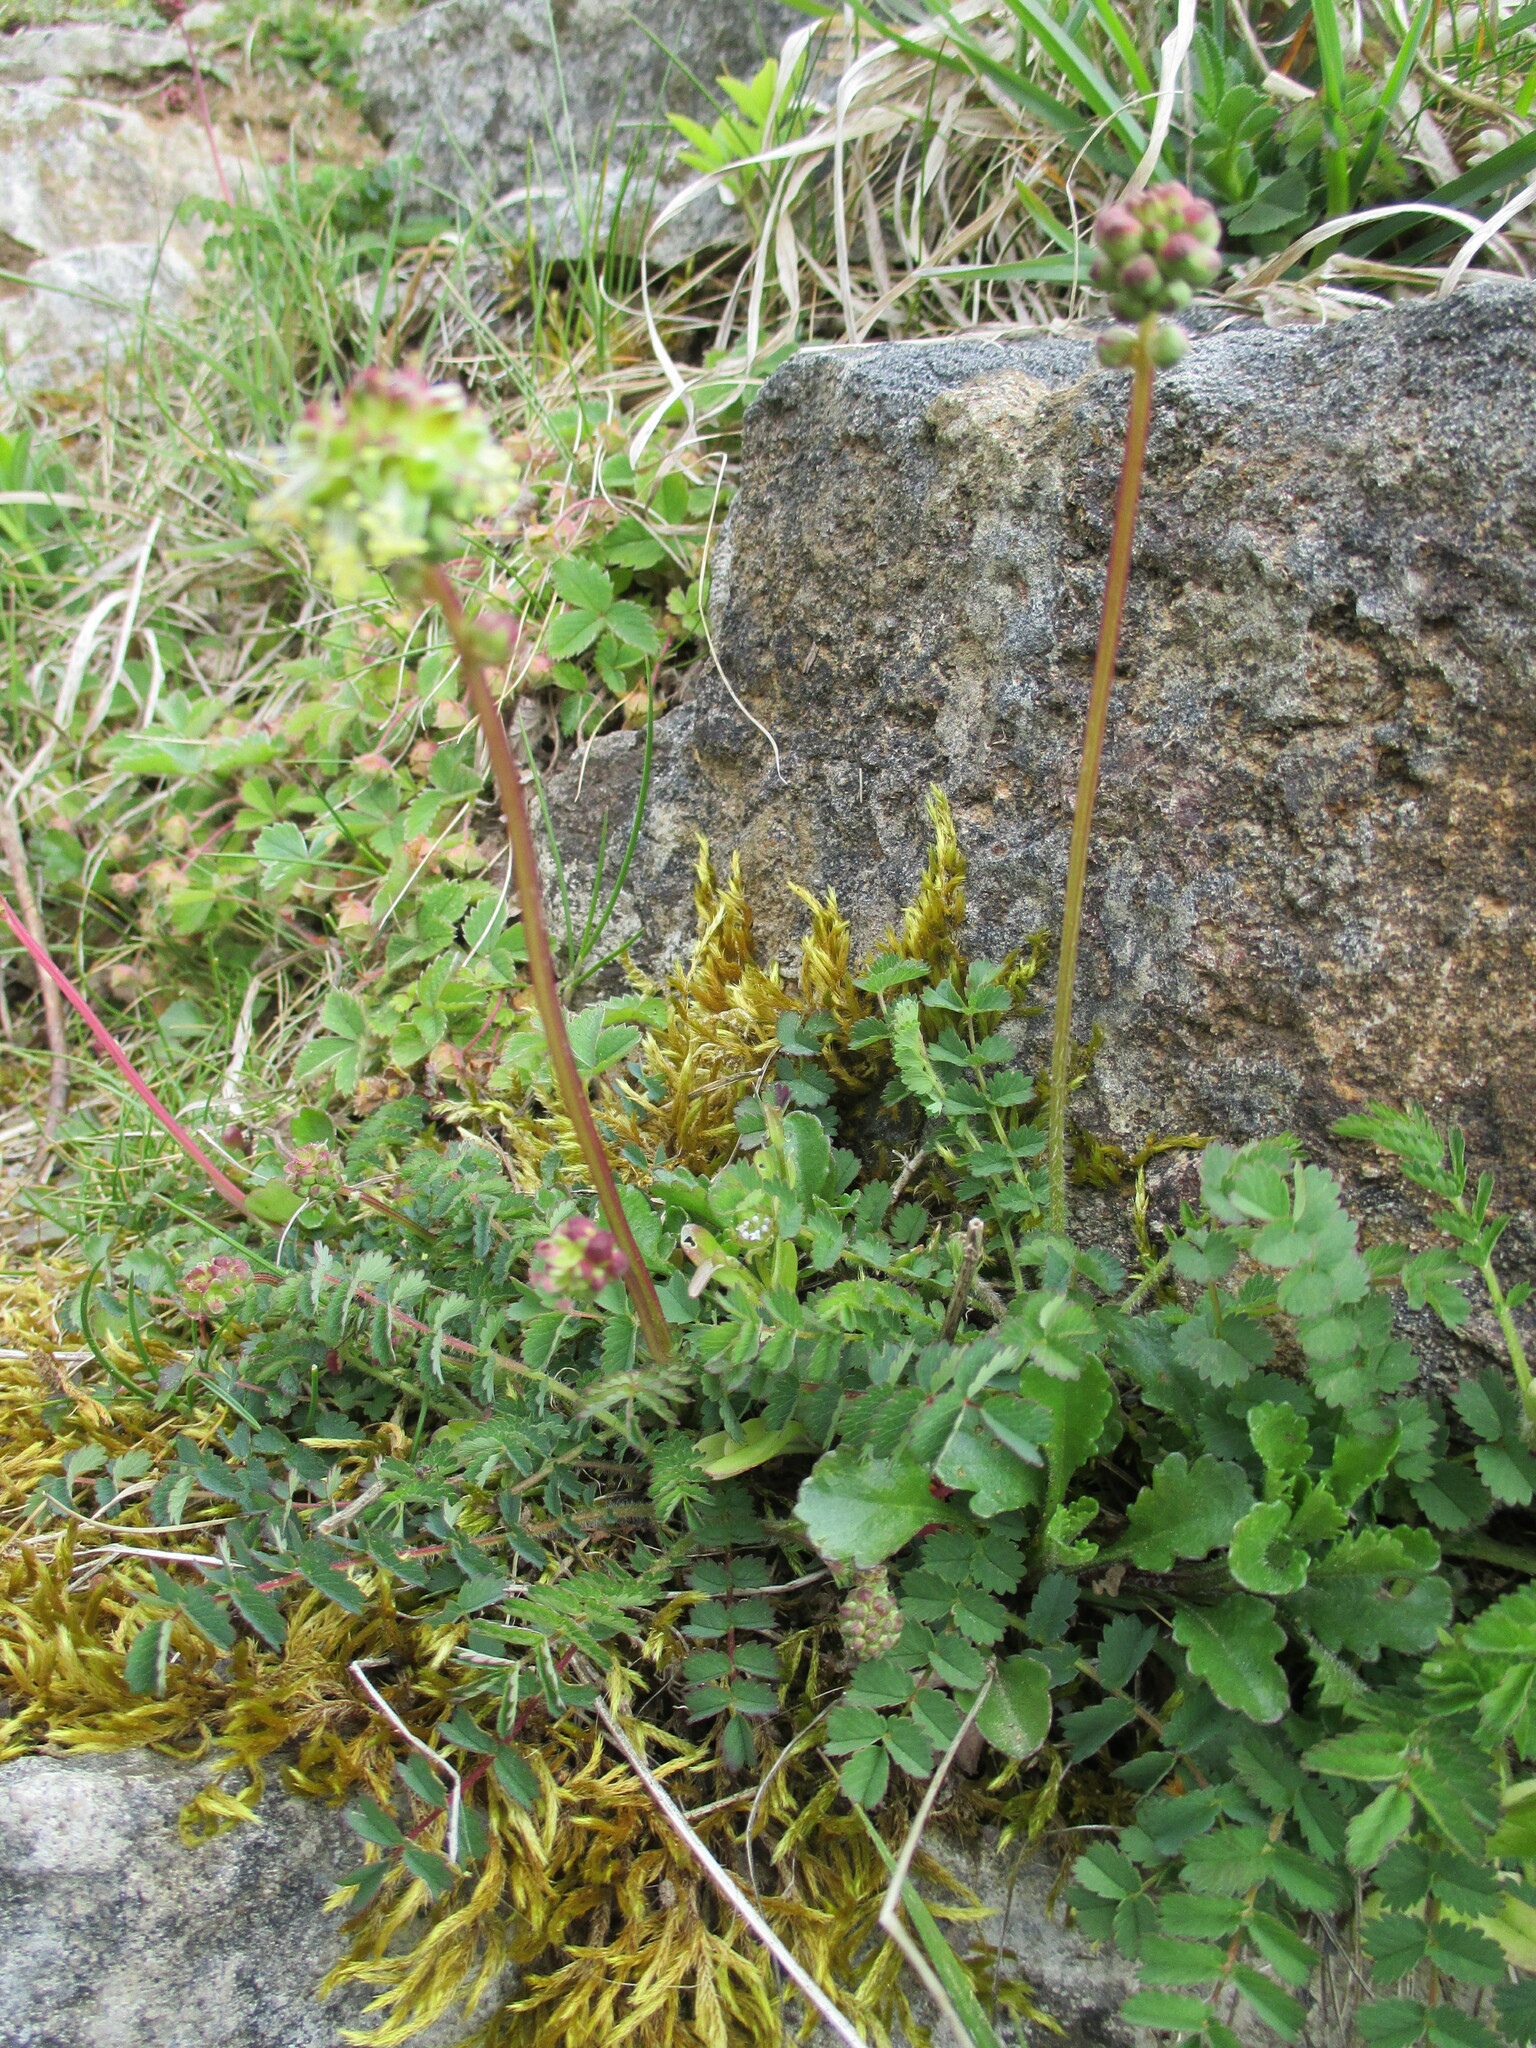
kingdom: Plantae
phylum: Tracheophyta
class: Magnoliopsida
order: Rosales
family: Rosaceae
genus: Poterium
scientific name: Poterium sanguisorba
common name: Salad burnet
